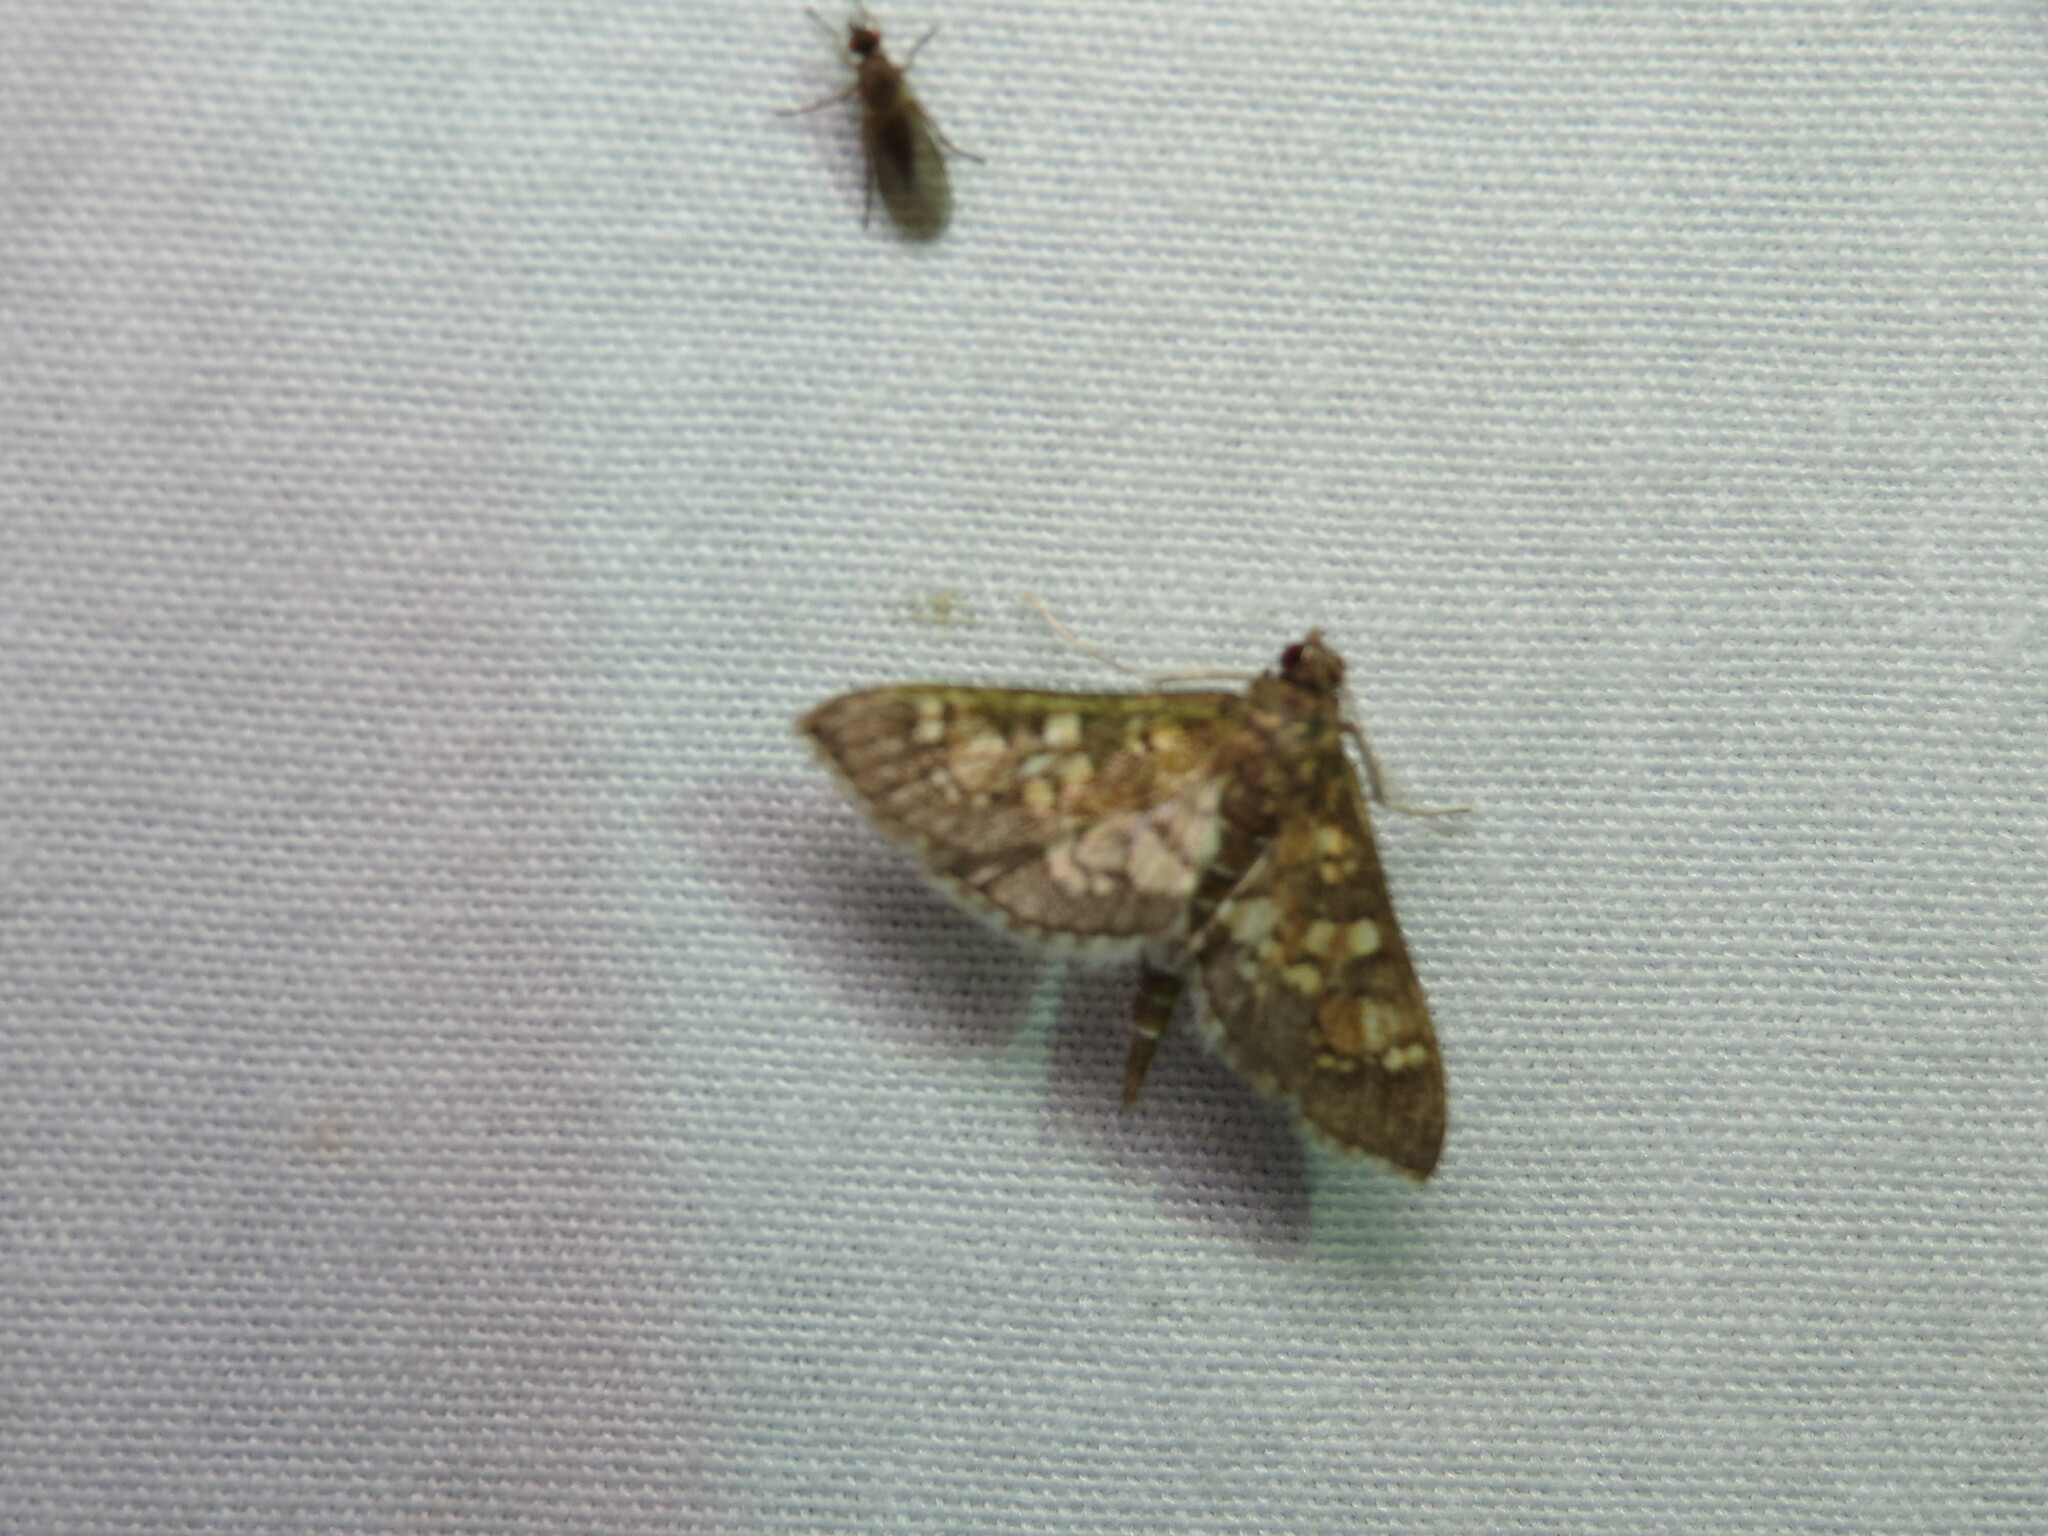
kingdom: Animalia
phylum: Arthropoda
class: Insecta
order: Lepidoptera
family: Crambidae
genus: Epipagis
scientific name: Epipagis adipaloides
